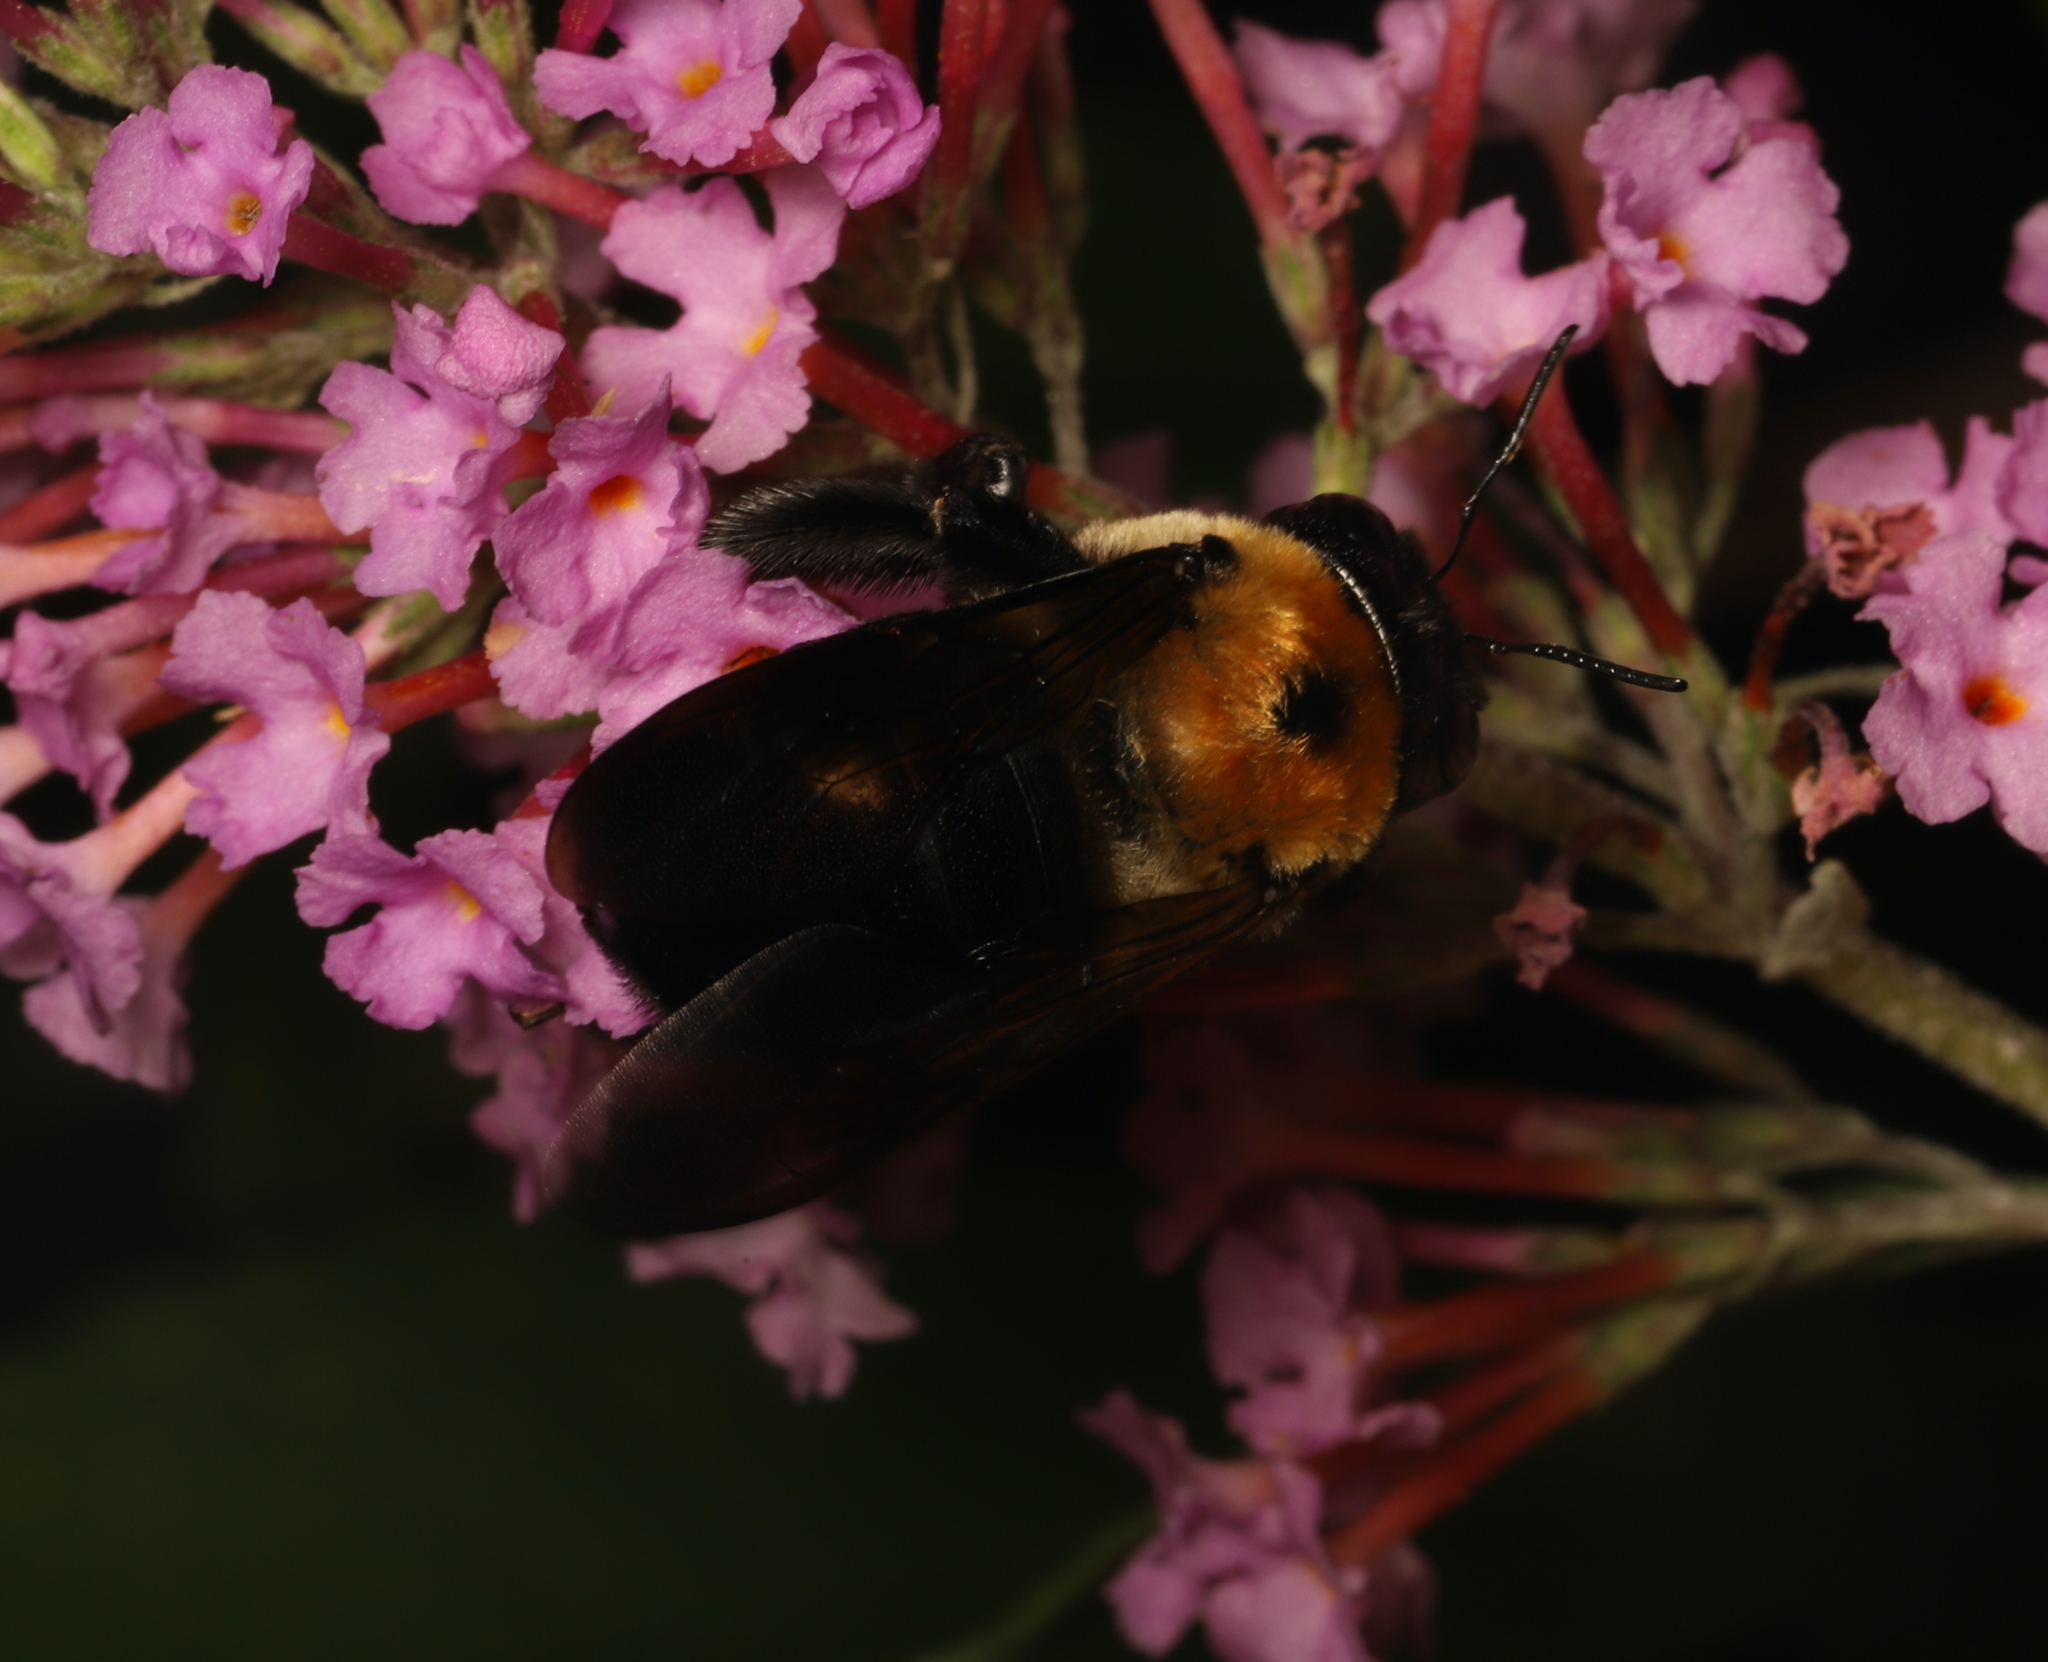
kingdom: Animalia
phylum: Arthropoda
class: Insecta
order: Hymenoptera
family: Apidae
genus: Xylocopa
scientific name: Xylocopa virginica
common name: Carpenter bee
